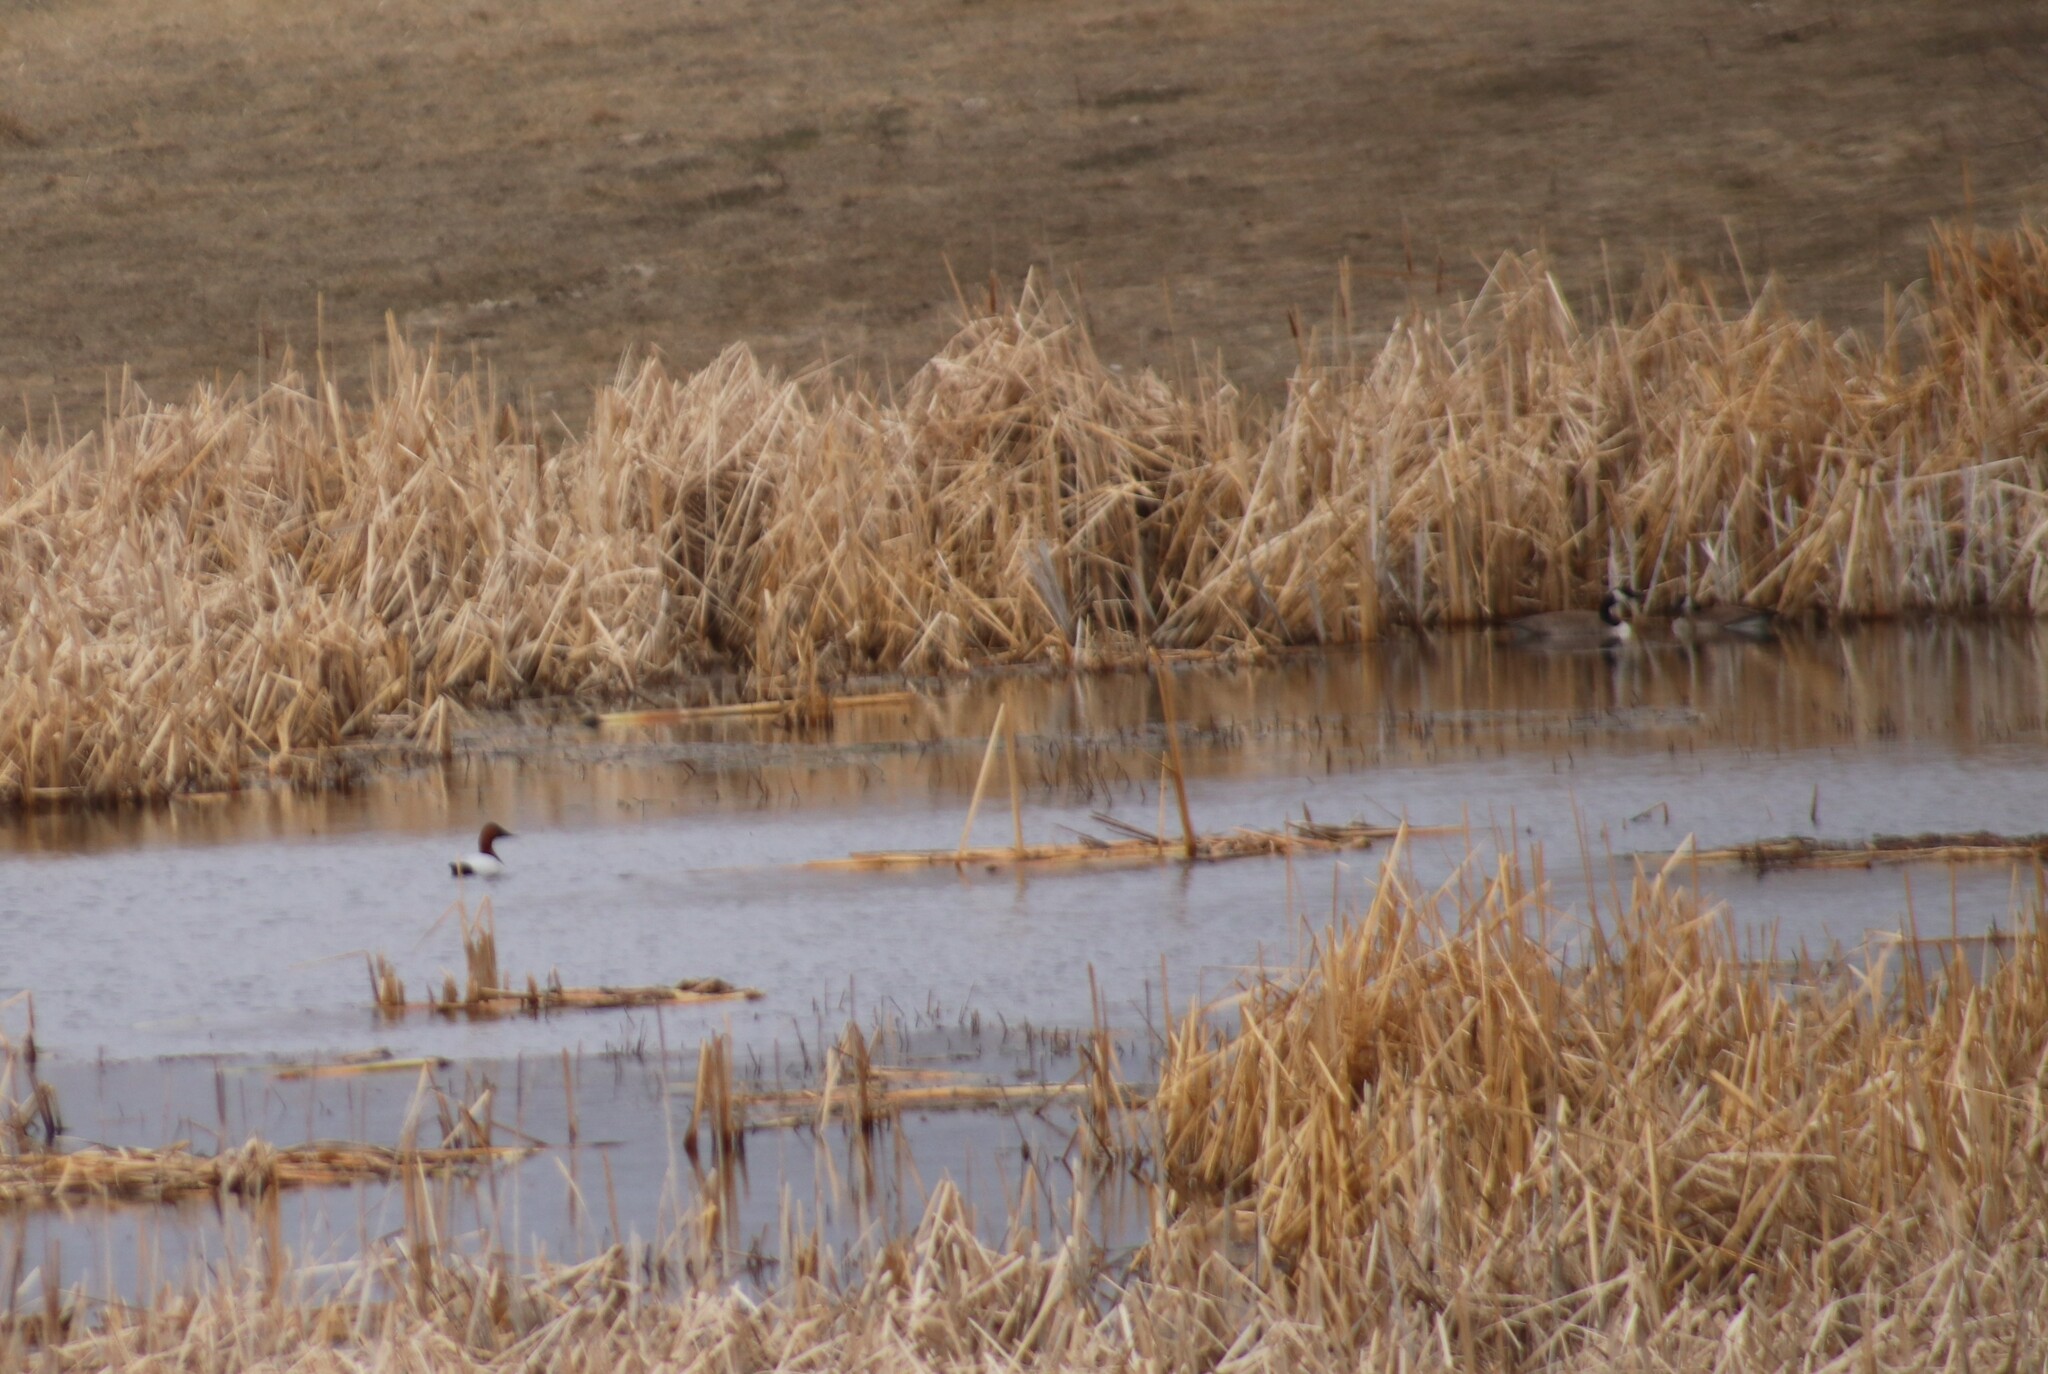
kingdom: Animalia
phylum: Chordata
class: Aves
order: Anseriformes
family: Anatidae
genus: Aythya
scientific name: Aythya valisineria
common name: Canvasback
